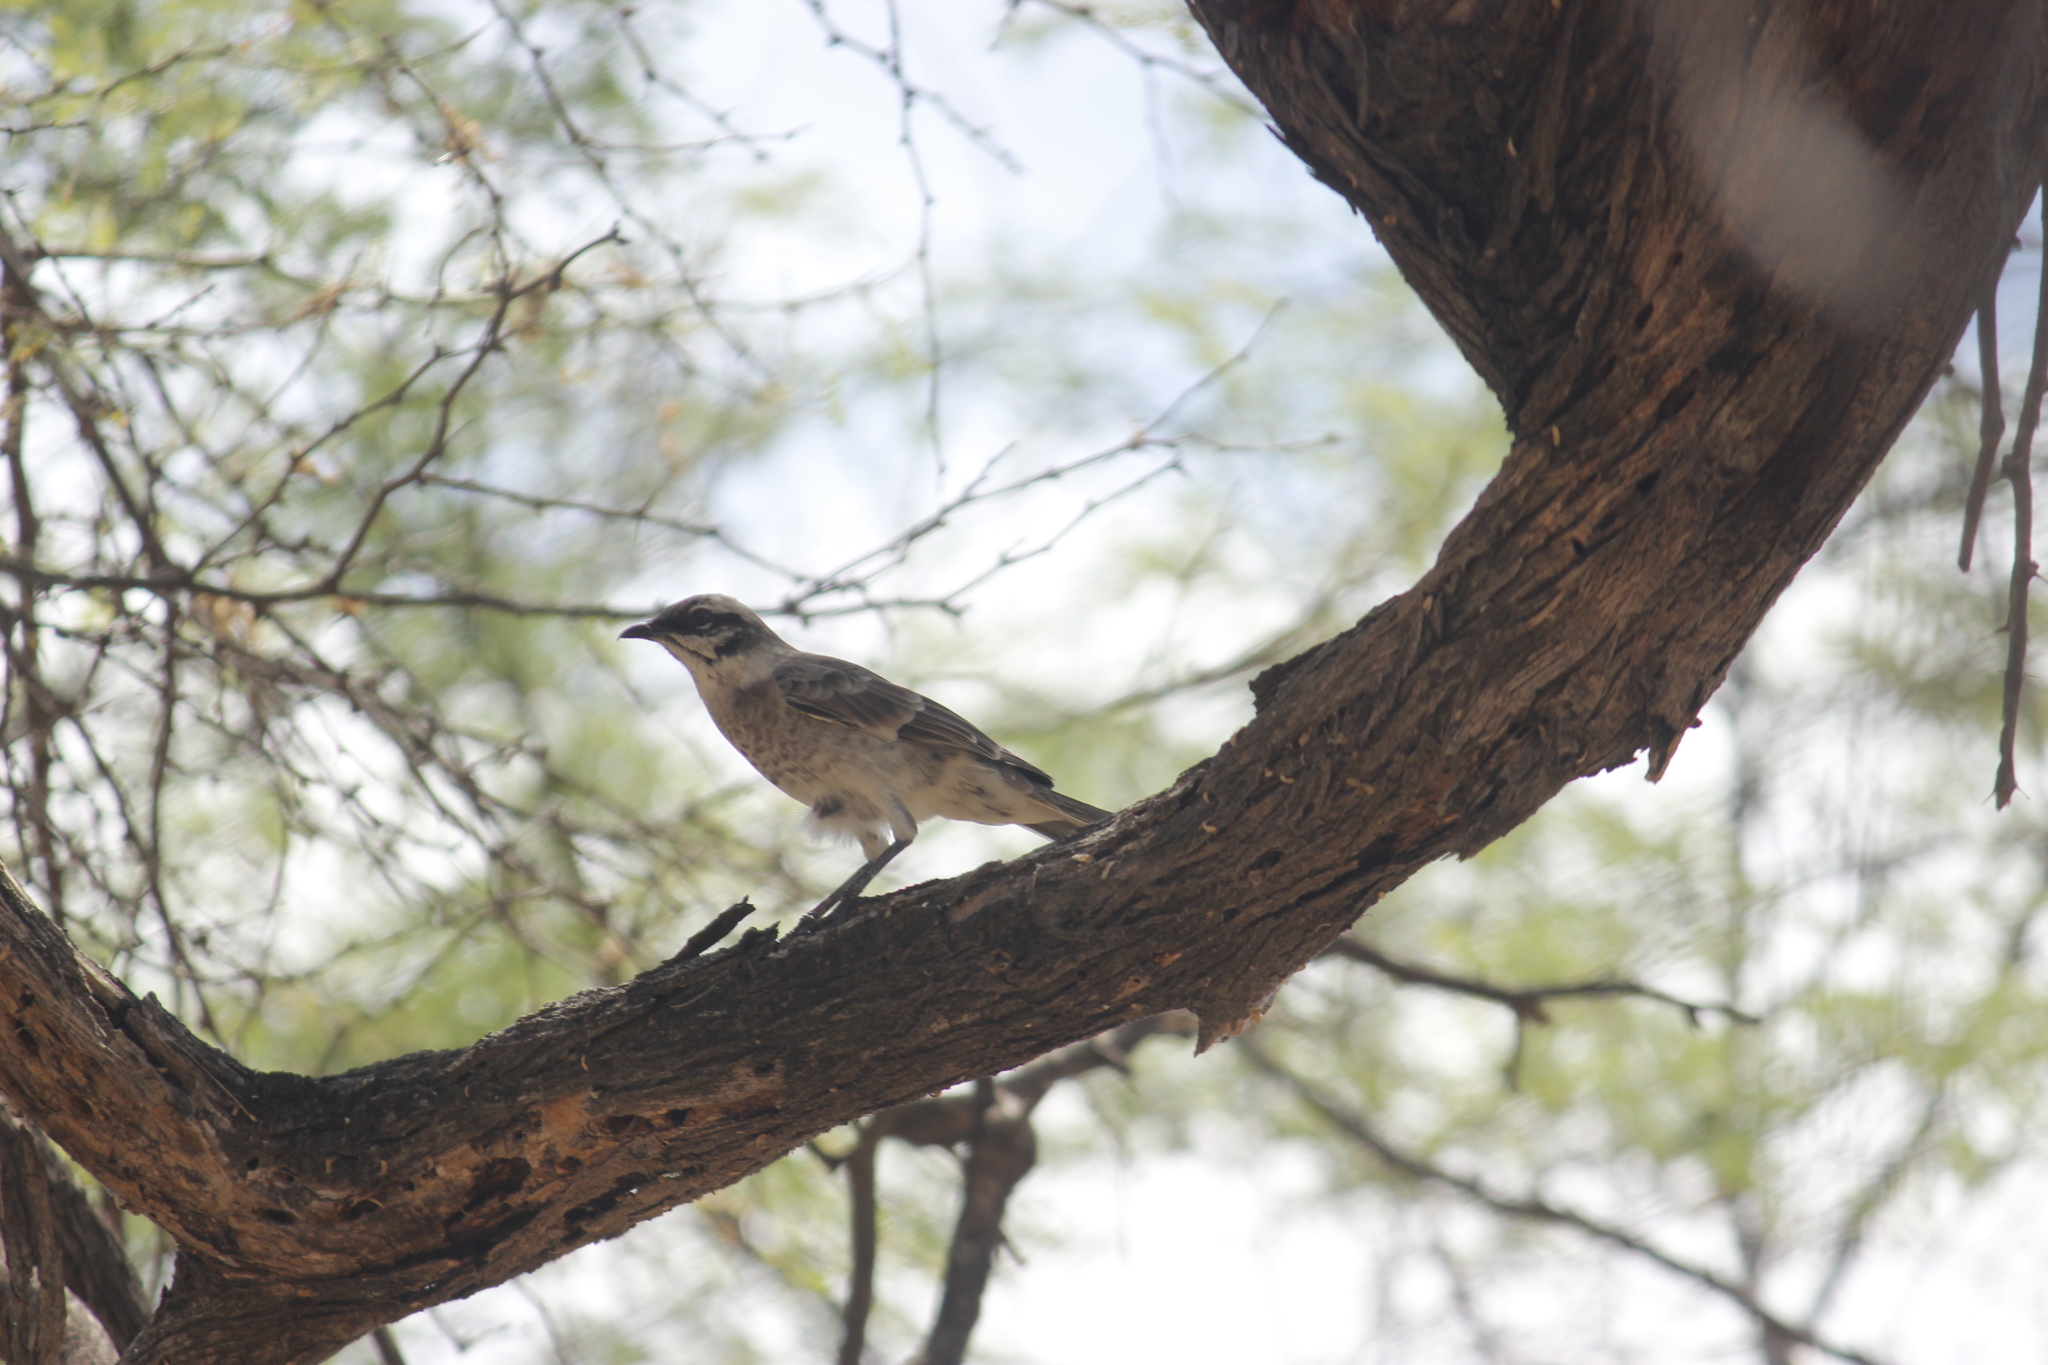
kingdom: Animalia
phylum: Chordata
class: Aves
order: Passeriformes
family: Mimidae
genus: Mimus
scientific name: Mimus longicaudatus
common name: Long-tailed mockingbird
